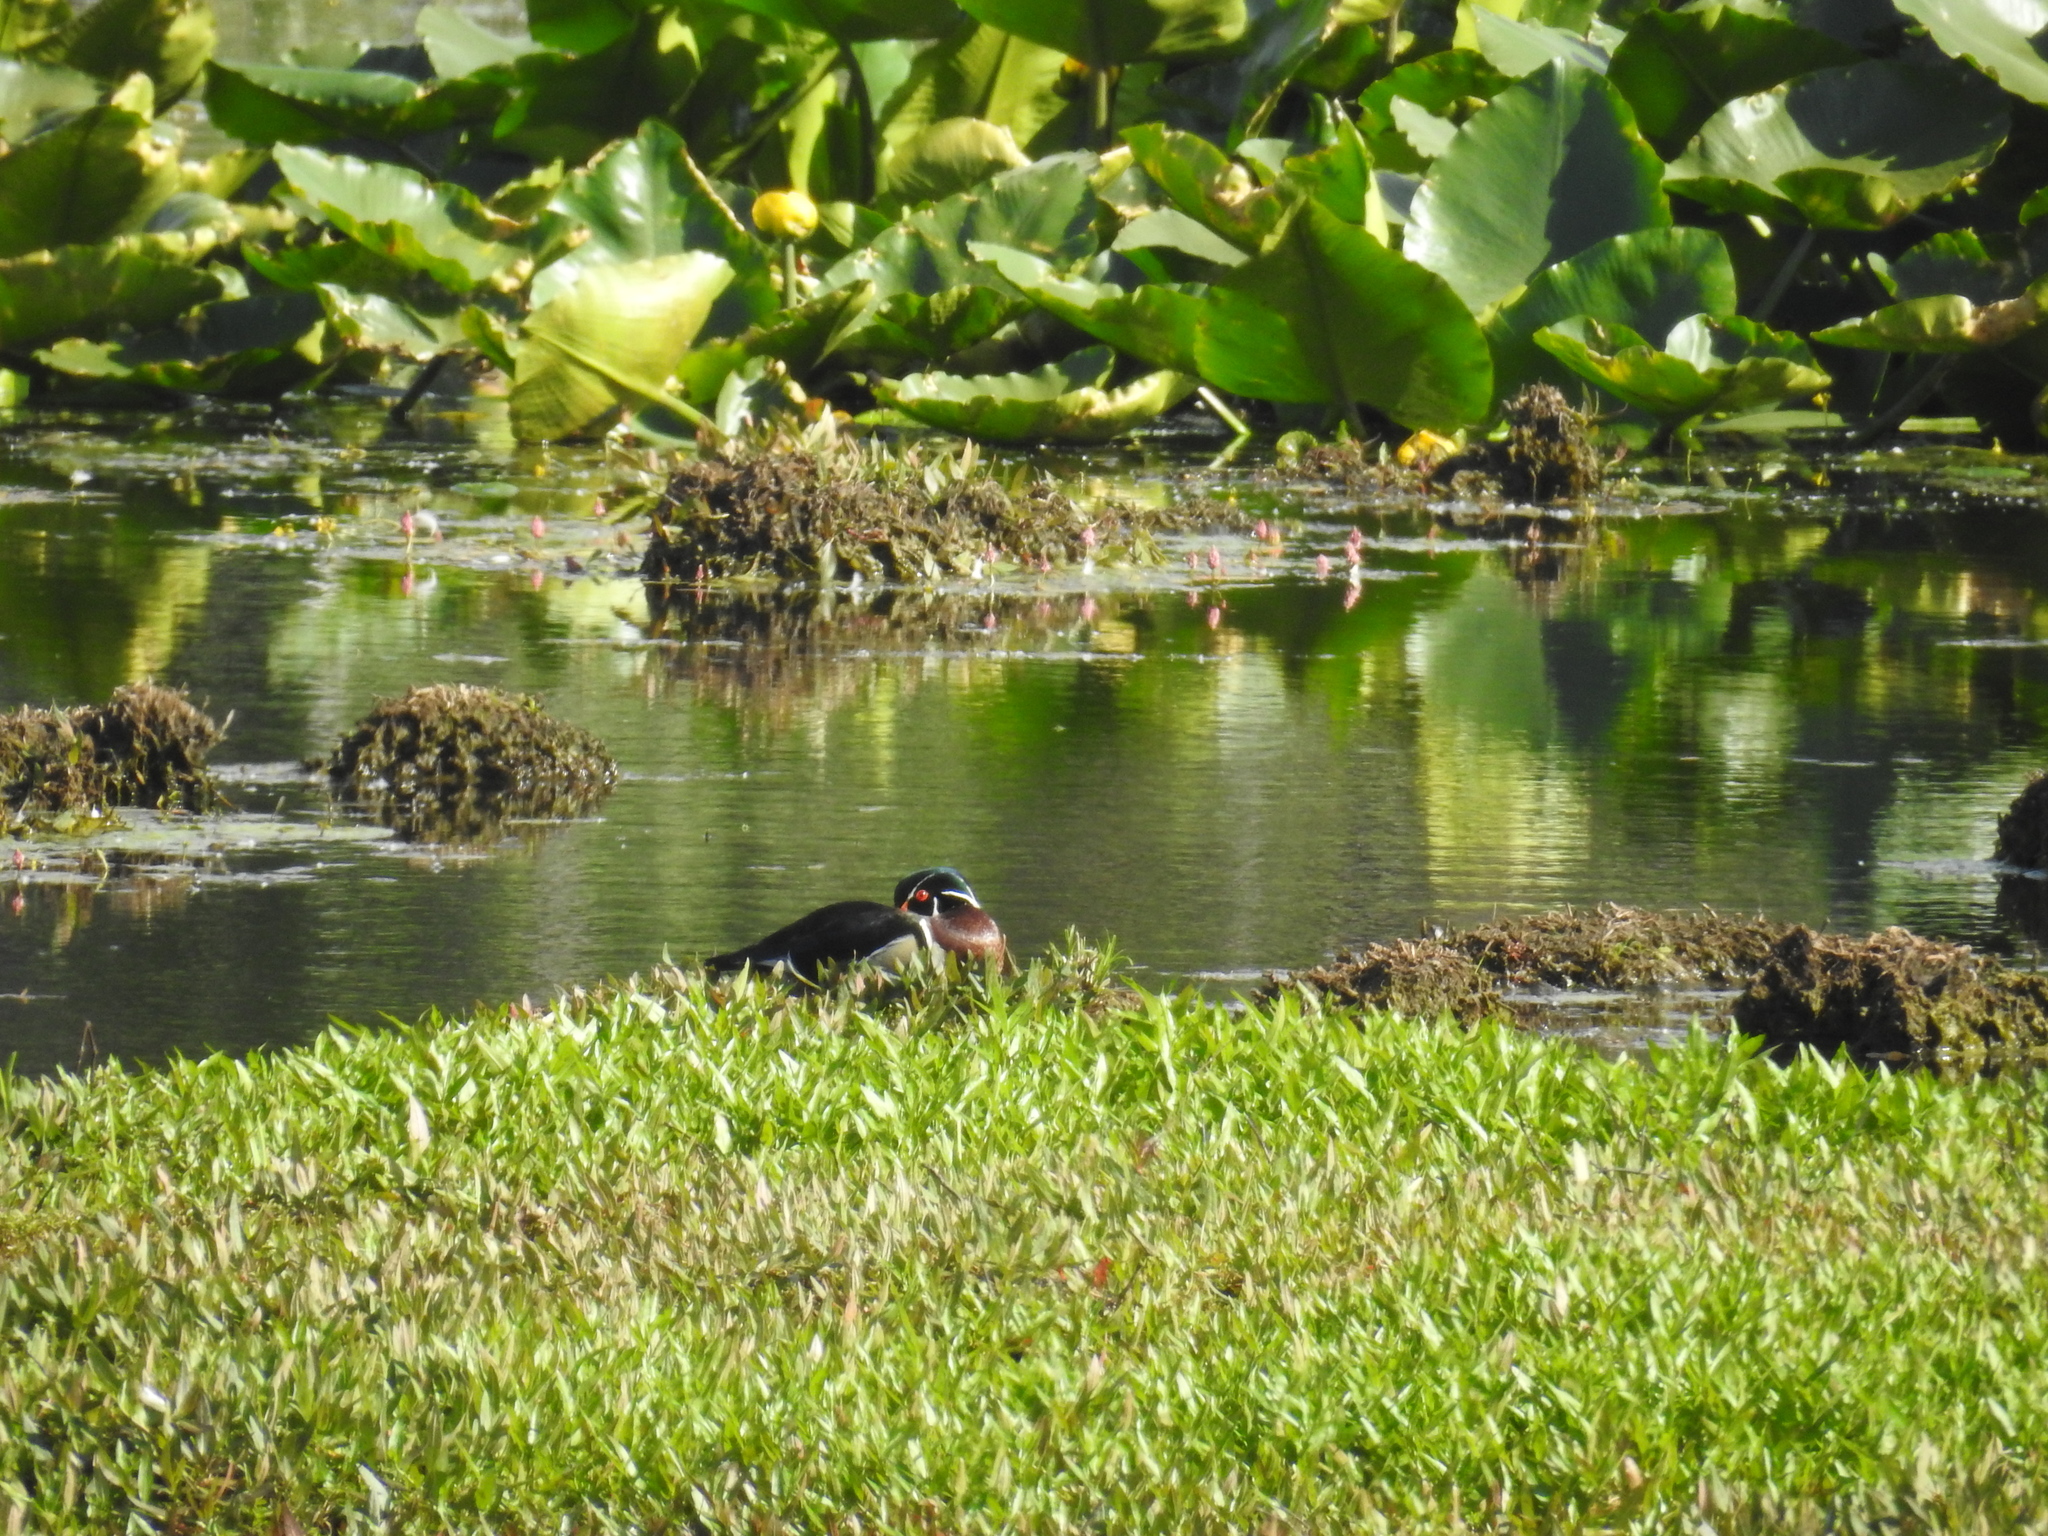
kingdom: Animalia
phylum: Chordata
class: Aves
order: Anseriformes
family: Anatidae
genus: Aix
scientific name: Aix sponsa
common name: Wood duck
